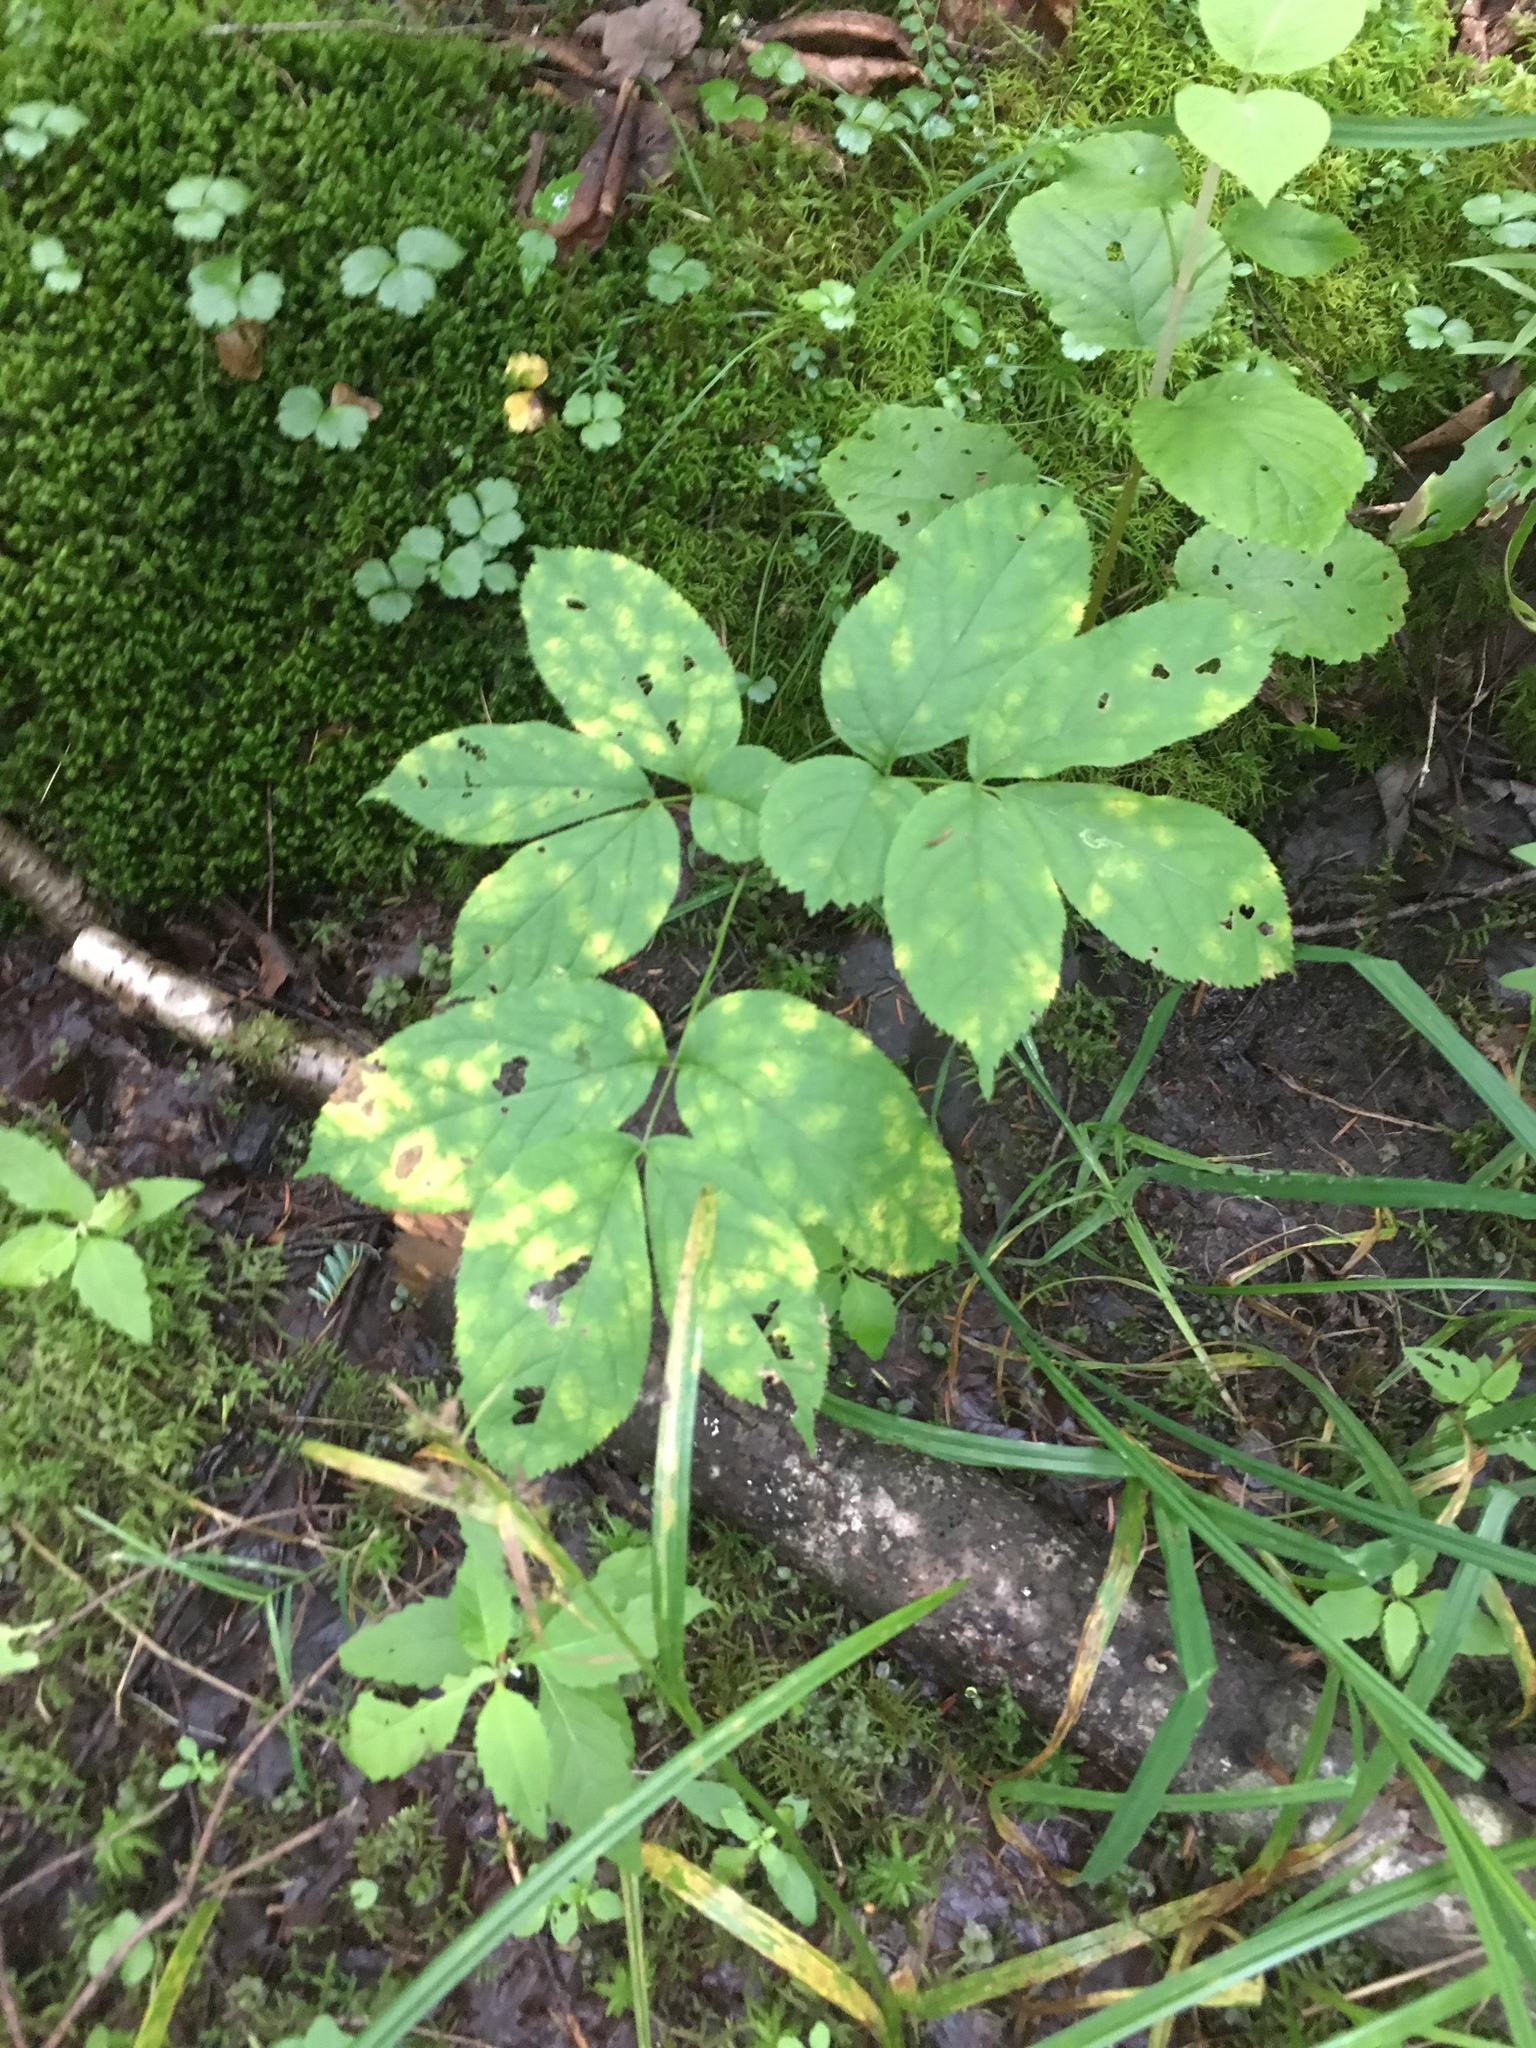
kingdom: Plantae
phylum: Tracheophyta
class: Magnoliopsida
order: Apiales
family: Araliaceae
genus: Aralia
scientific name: Aralia nudicaulis
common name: Wild sarsaparilla
